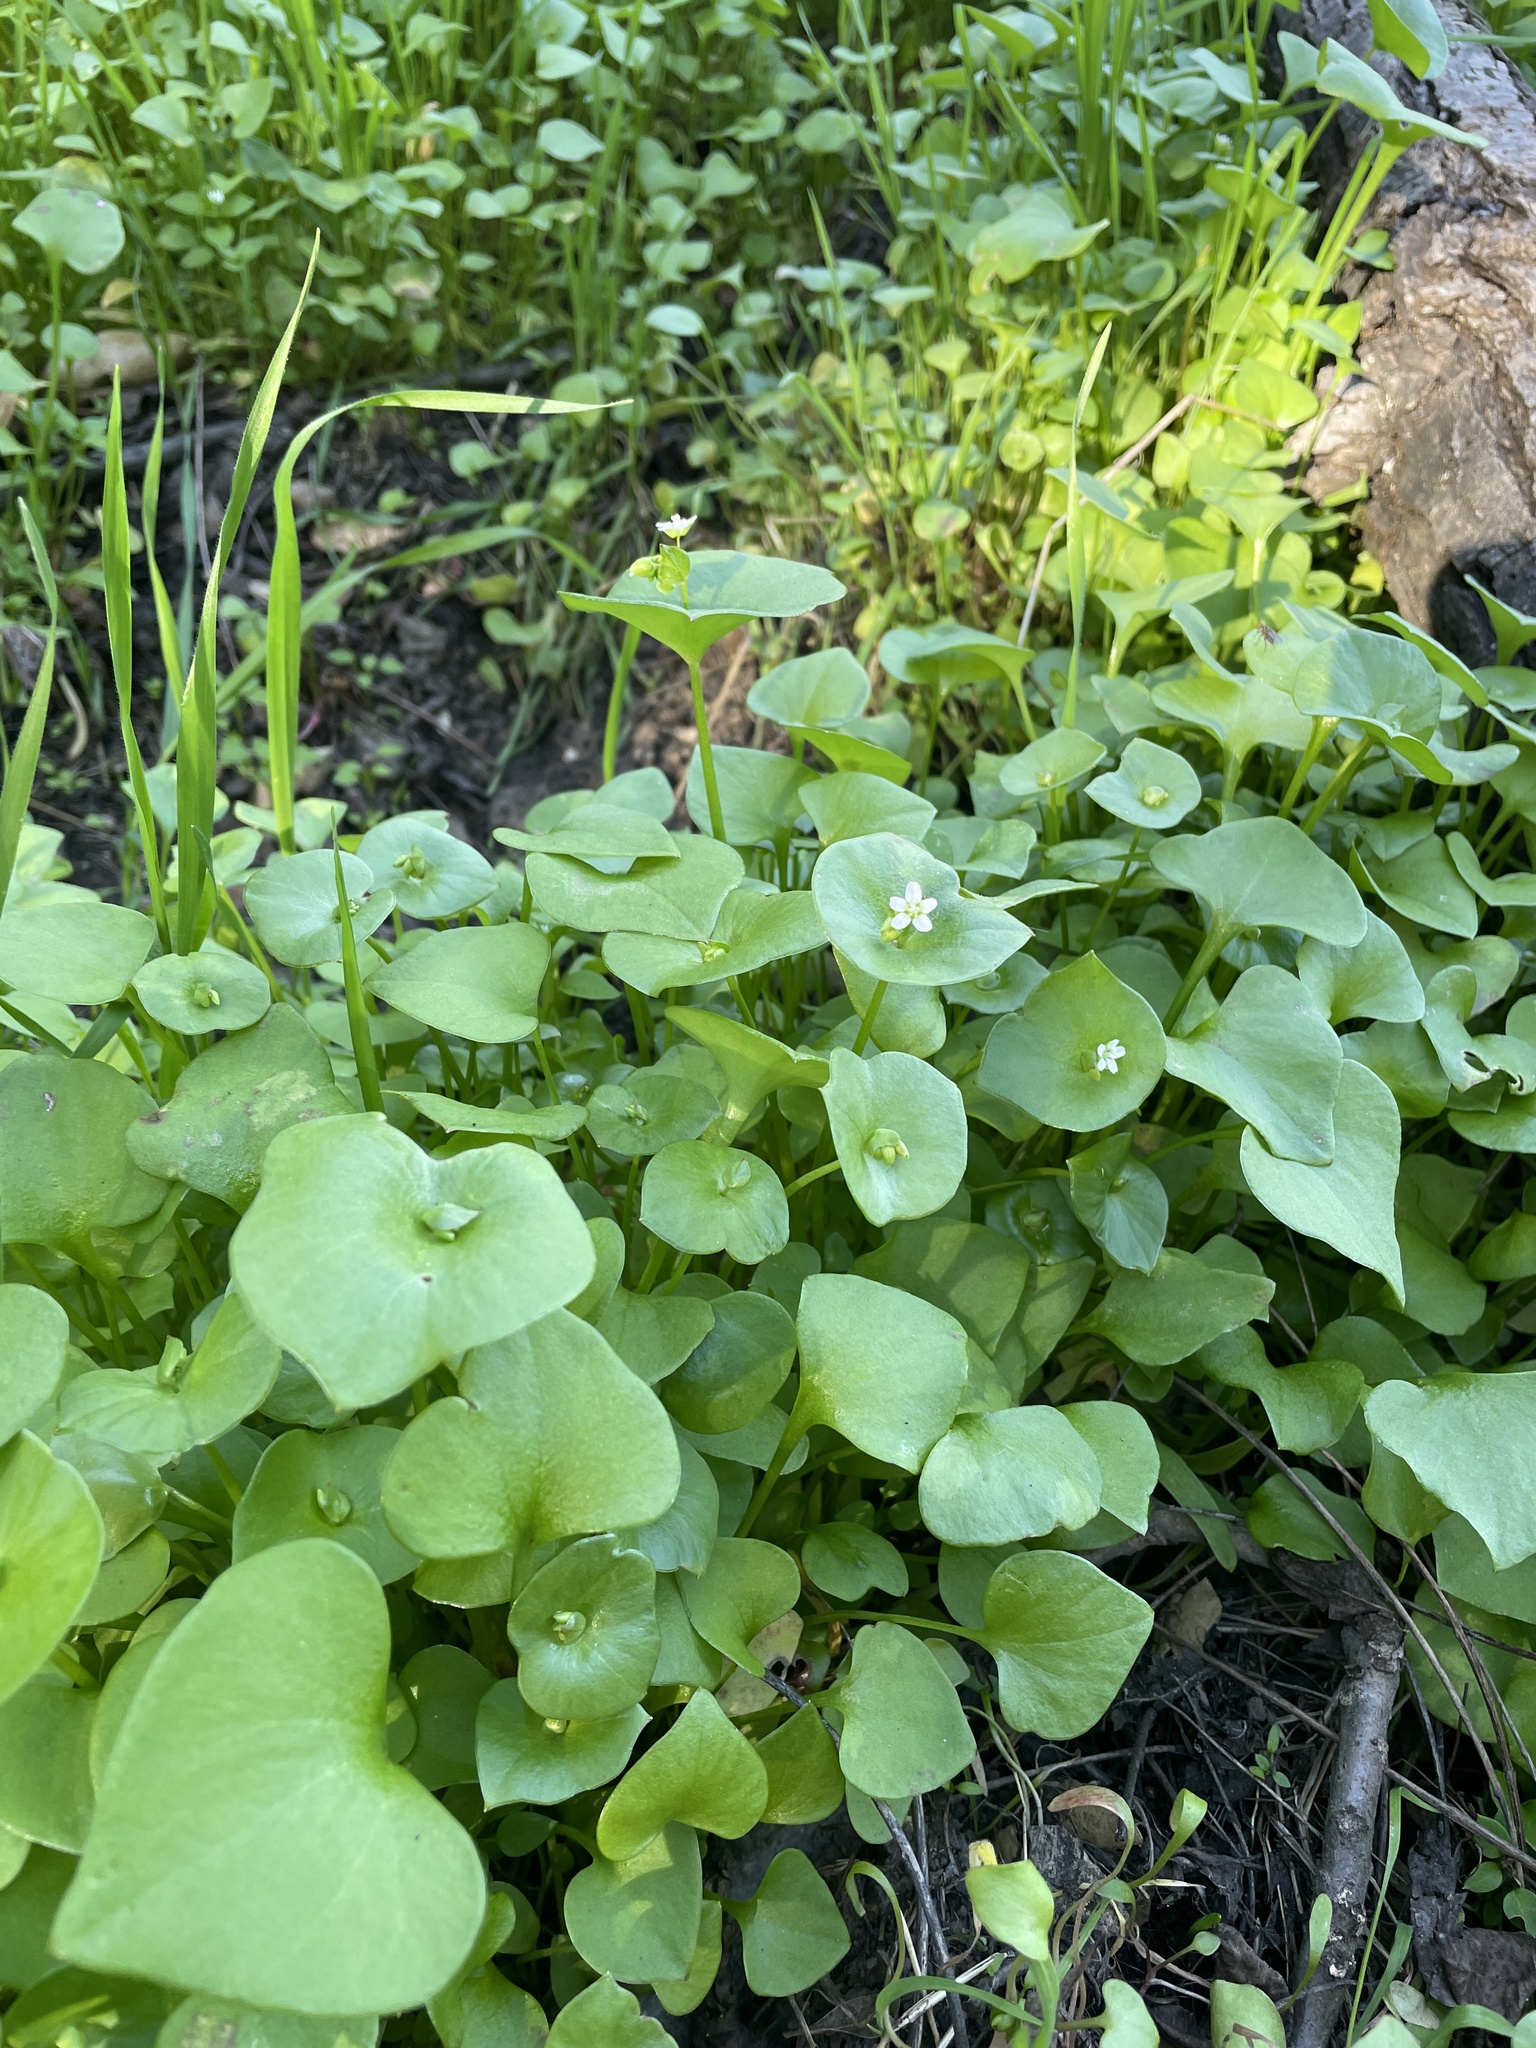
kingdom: Plantae
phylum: Tracheophyta
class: Magnoliopsida
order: Caryophyllales
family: Montiaceae
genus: Claytonia
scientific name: Claytonia perfoliata
